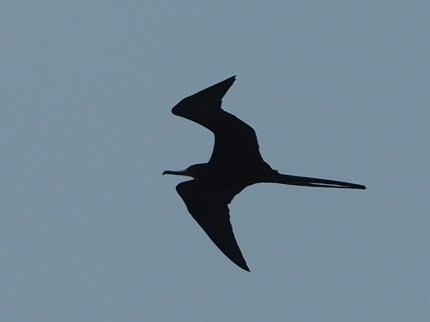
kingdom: Animalia
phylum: Chordata
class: Aves
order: Suliformes
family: Fregatidae
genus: Fregata
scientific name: Fregata magnificens
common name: Magnificent frigatebird
